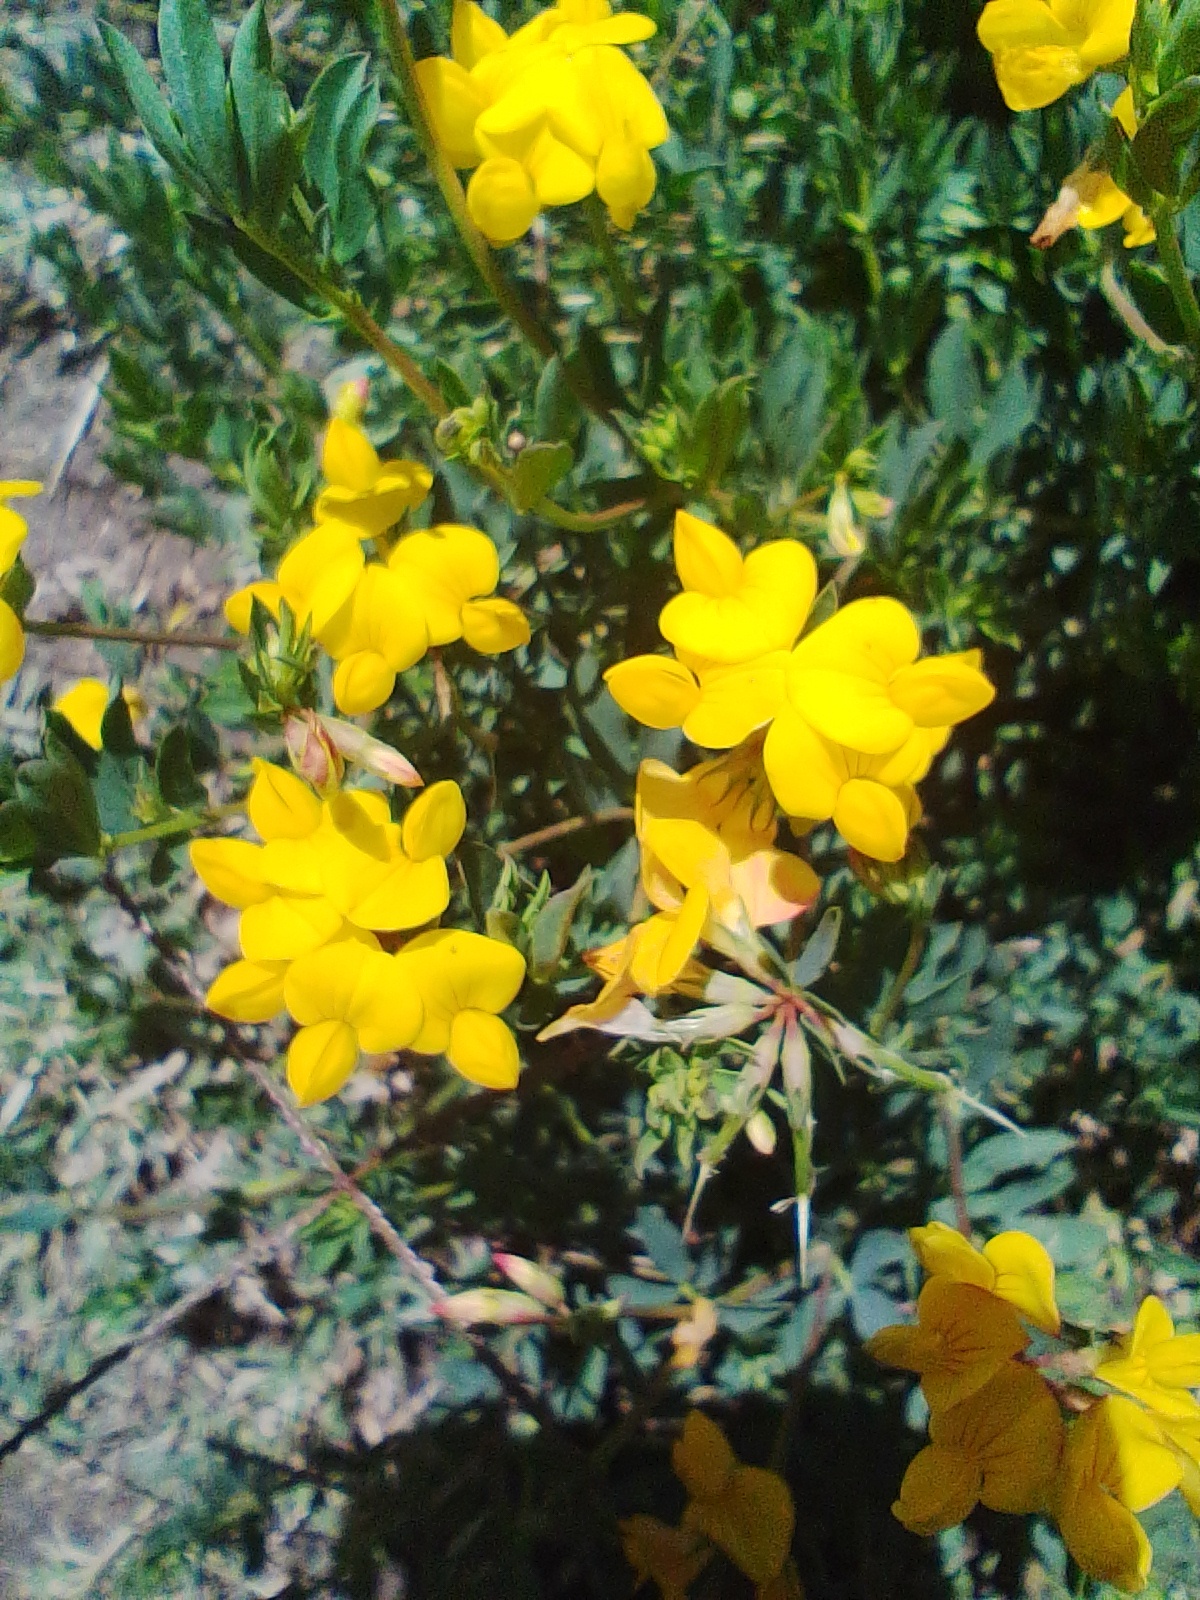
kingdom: Plantae
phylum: Tracheophyta
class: Magnoliopsida
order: Fabales
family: Fabaceae
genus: Lotus
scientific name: Lotus corniculatus
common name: Common bird's-foot-trefoil
